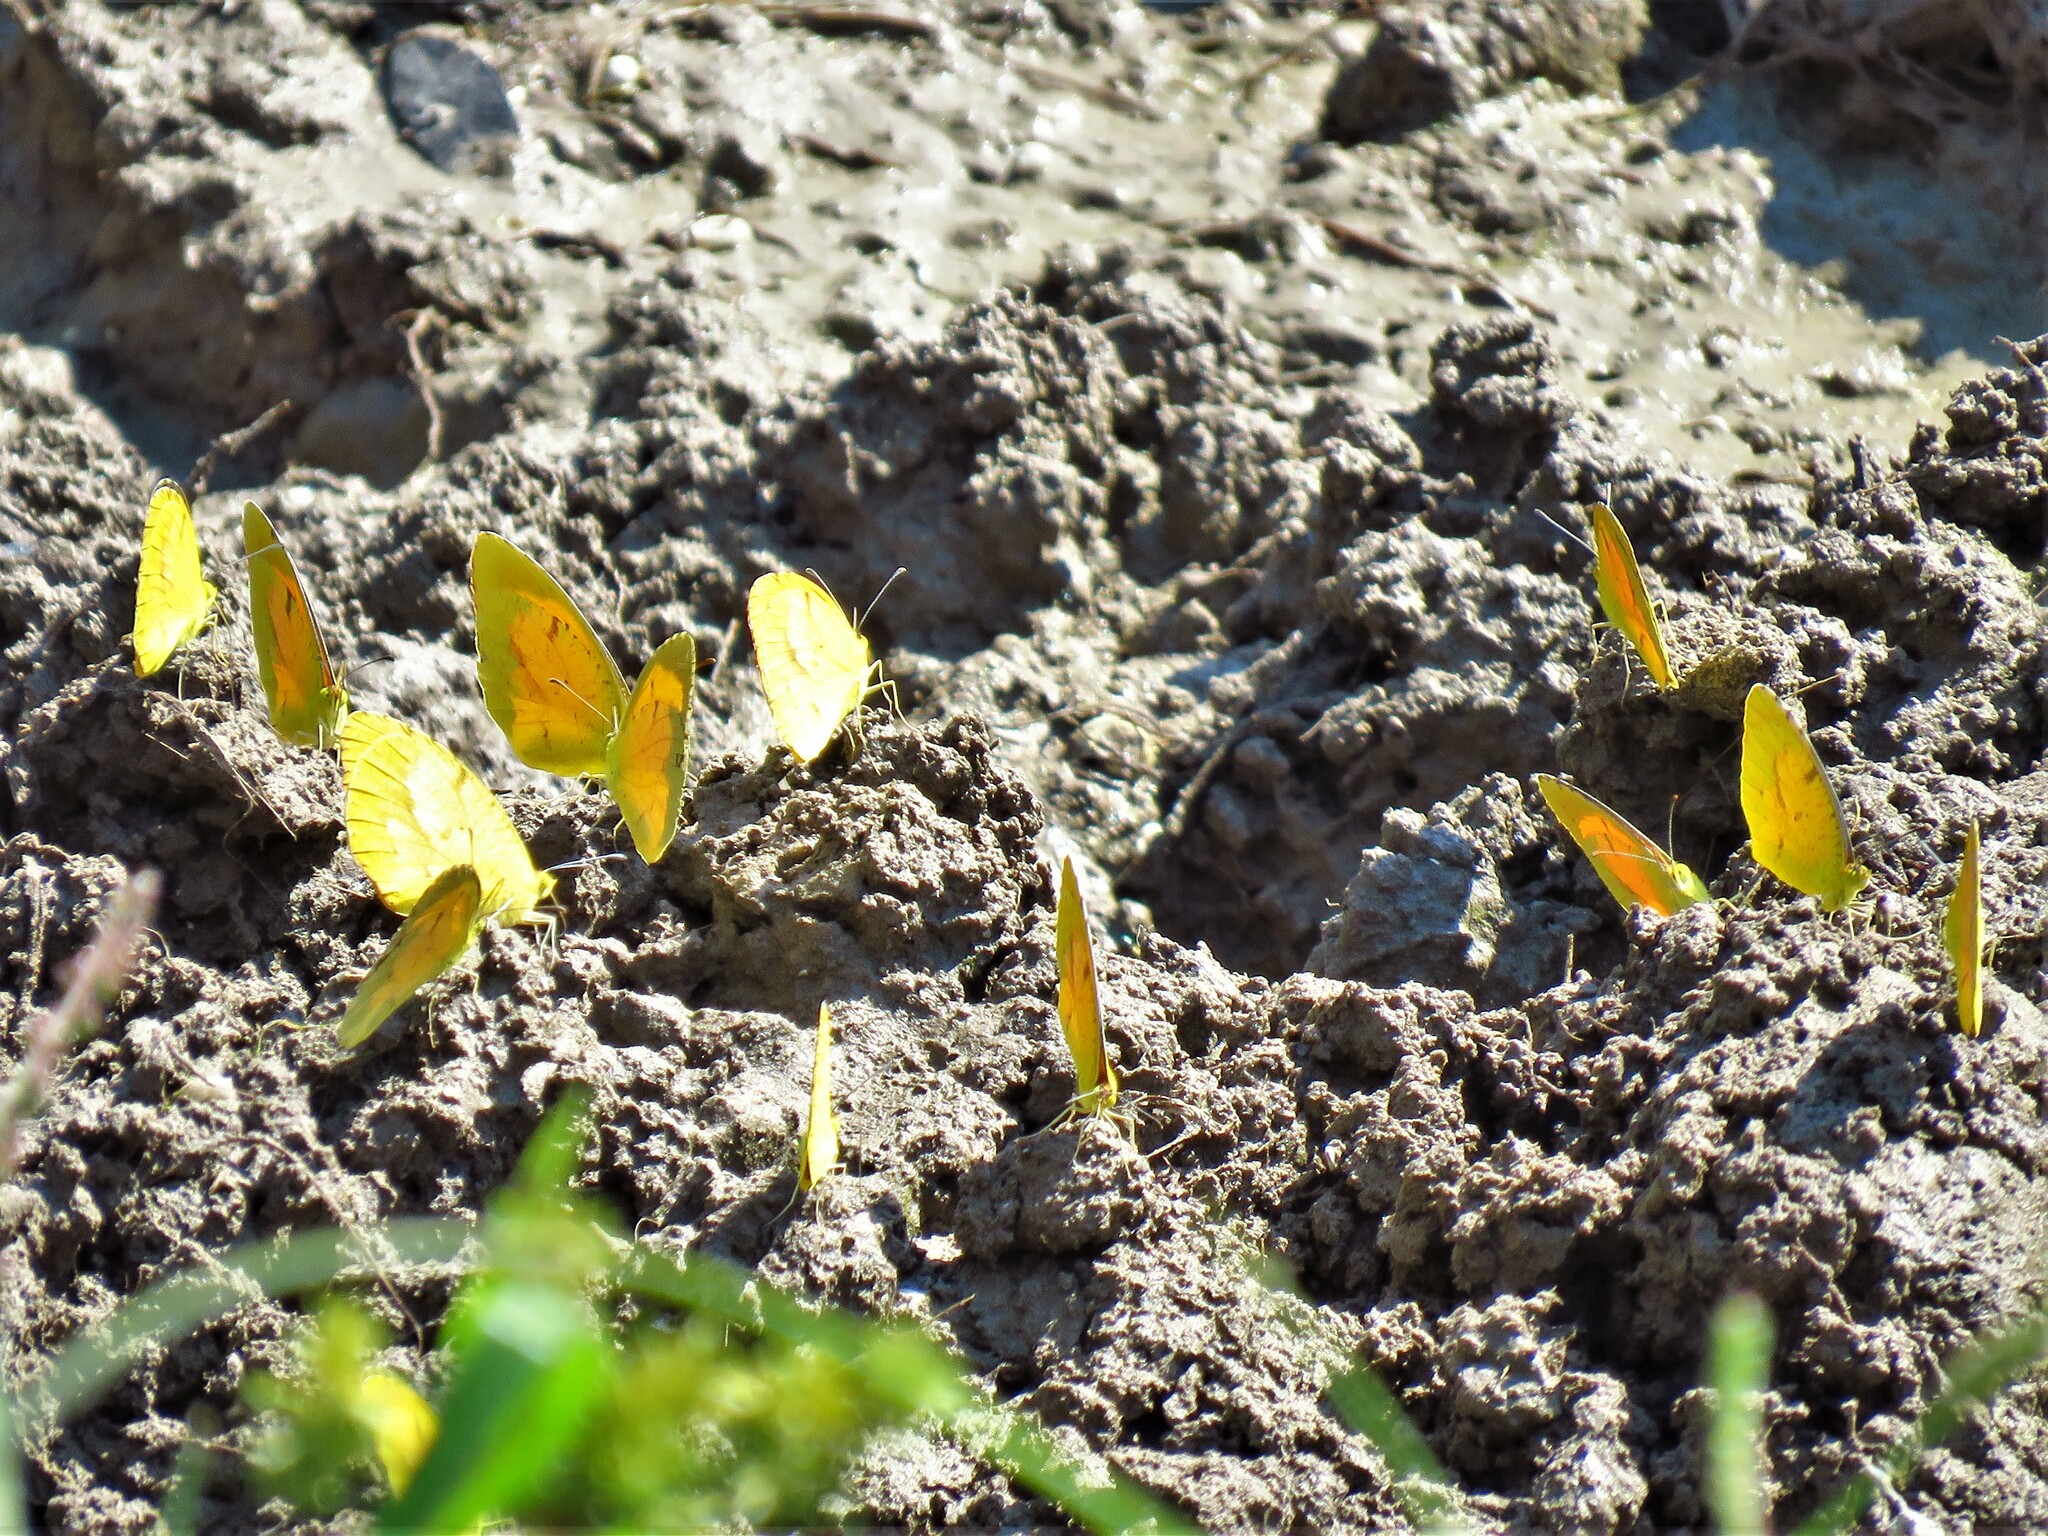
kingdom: Animalia
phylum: Arthropoda
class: Insecta
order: Lepidoptera
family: Pieridae
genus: Abaeis
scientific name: Abaeis nicippe
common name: Sleepy orange
